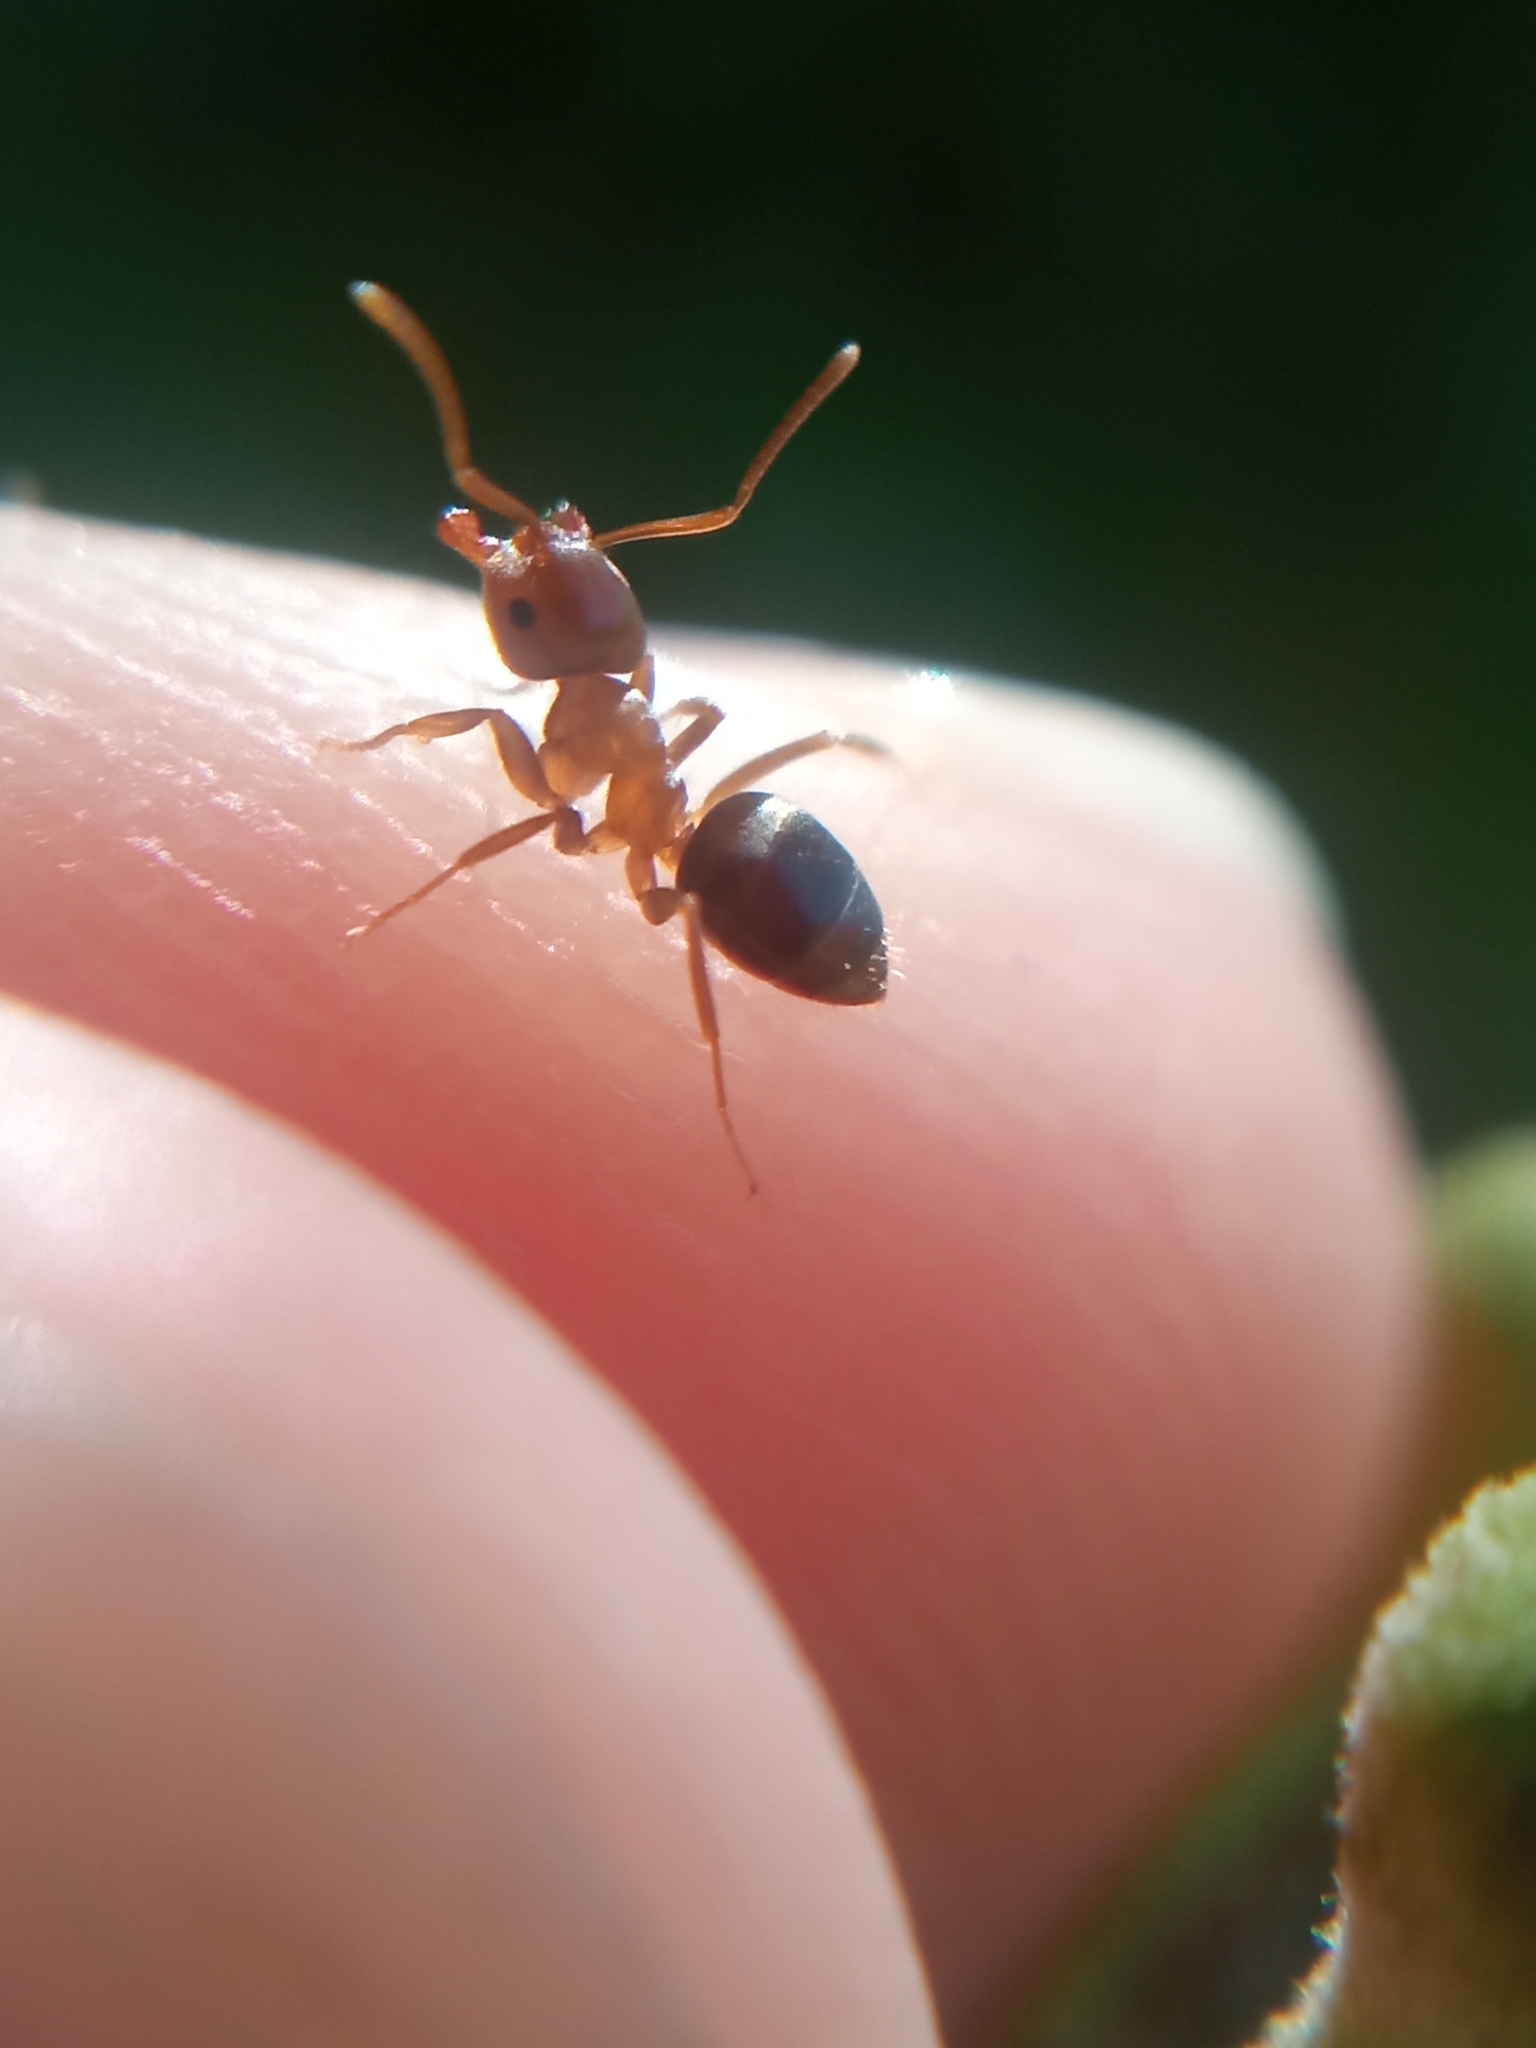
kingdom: Animalia
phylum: Arthropoda
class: Insecta
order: Hymenoptera
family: Formicidae
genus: Lasius
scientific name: Lasius brunneus
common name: Brown ant
